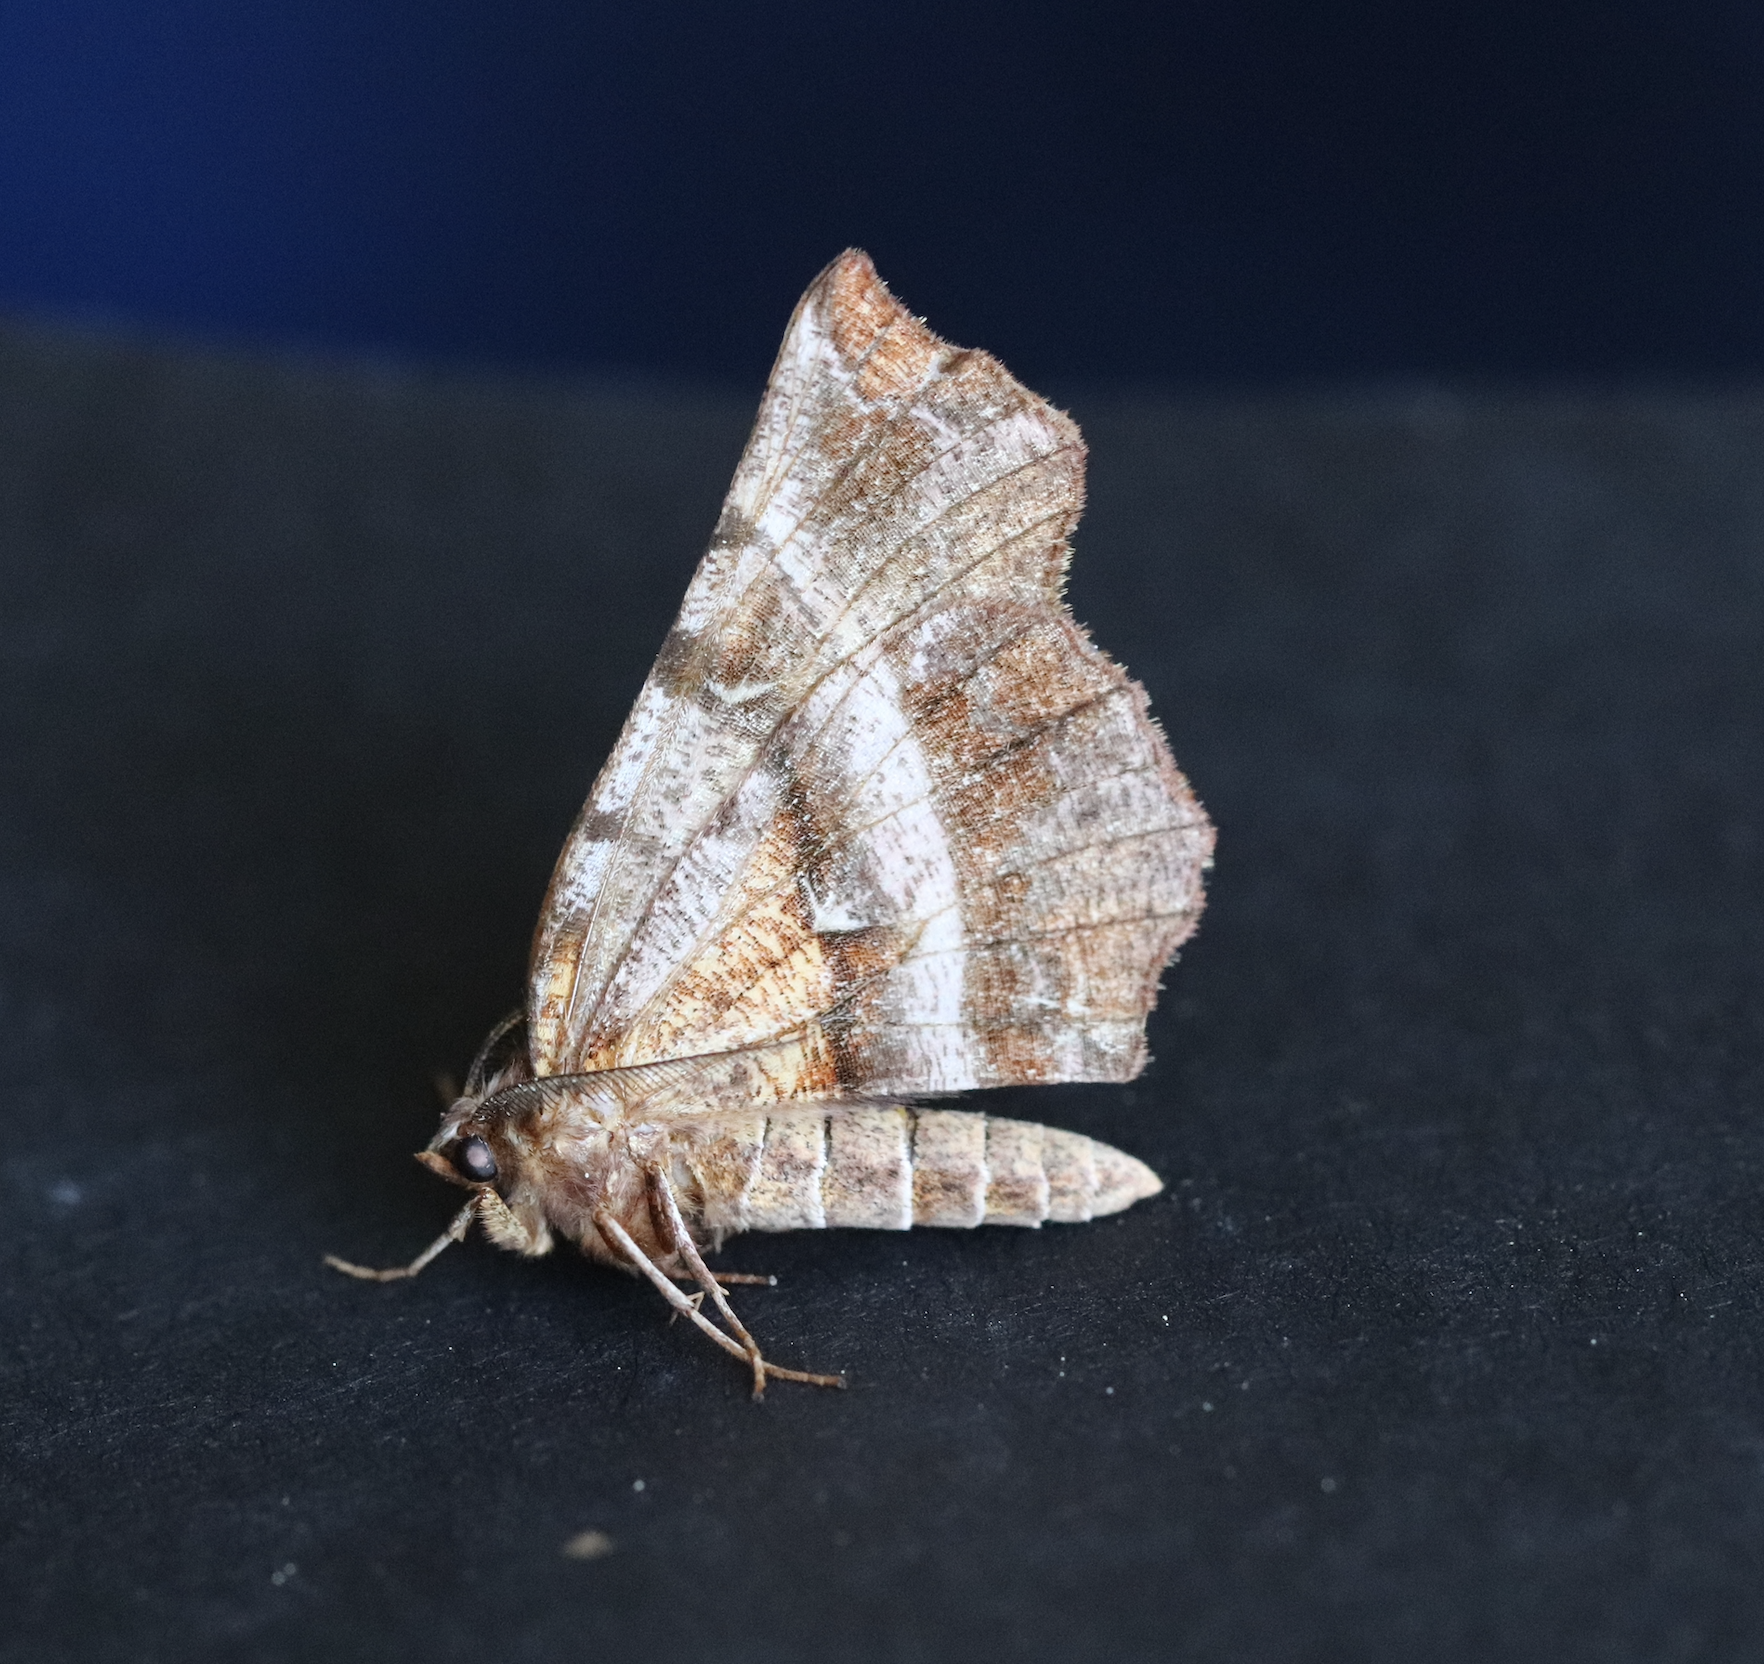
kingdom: Animalia
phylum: Arthropoda
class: Insecta
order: Lepidoptera
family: Geometridae
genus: Selenia
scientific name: Selenia dentaria
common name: Early thorn
